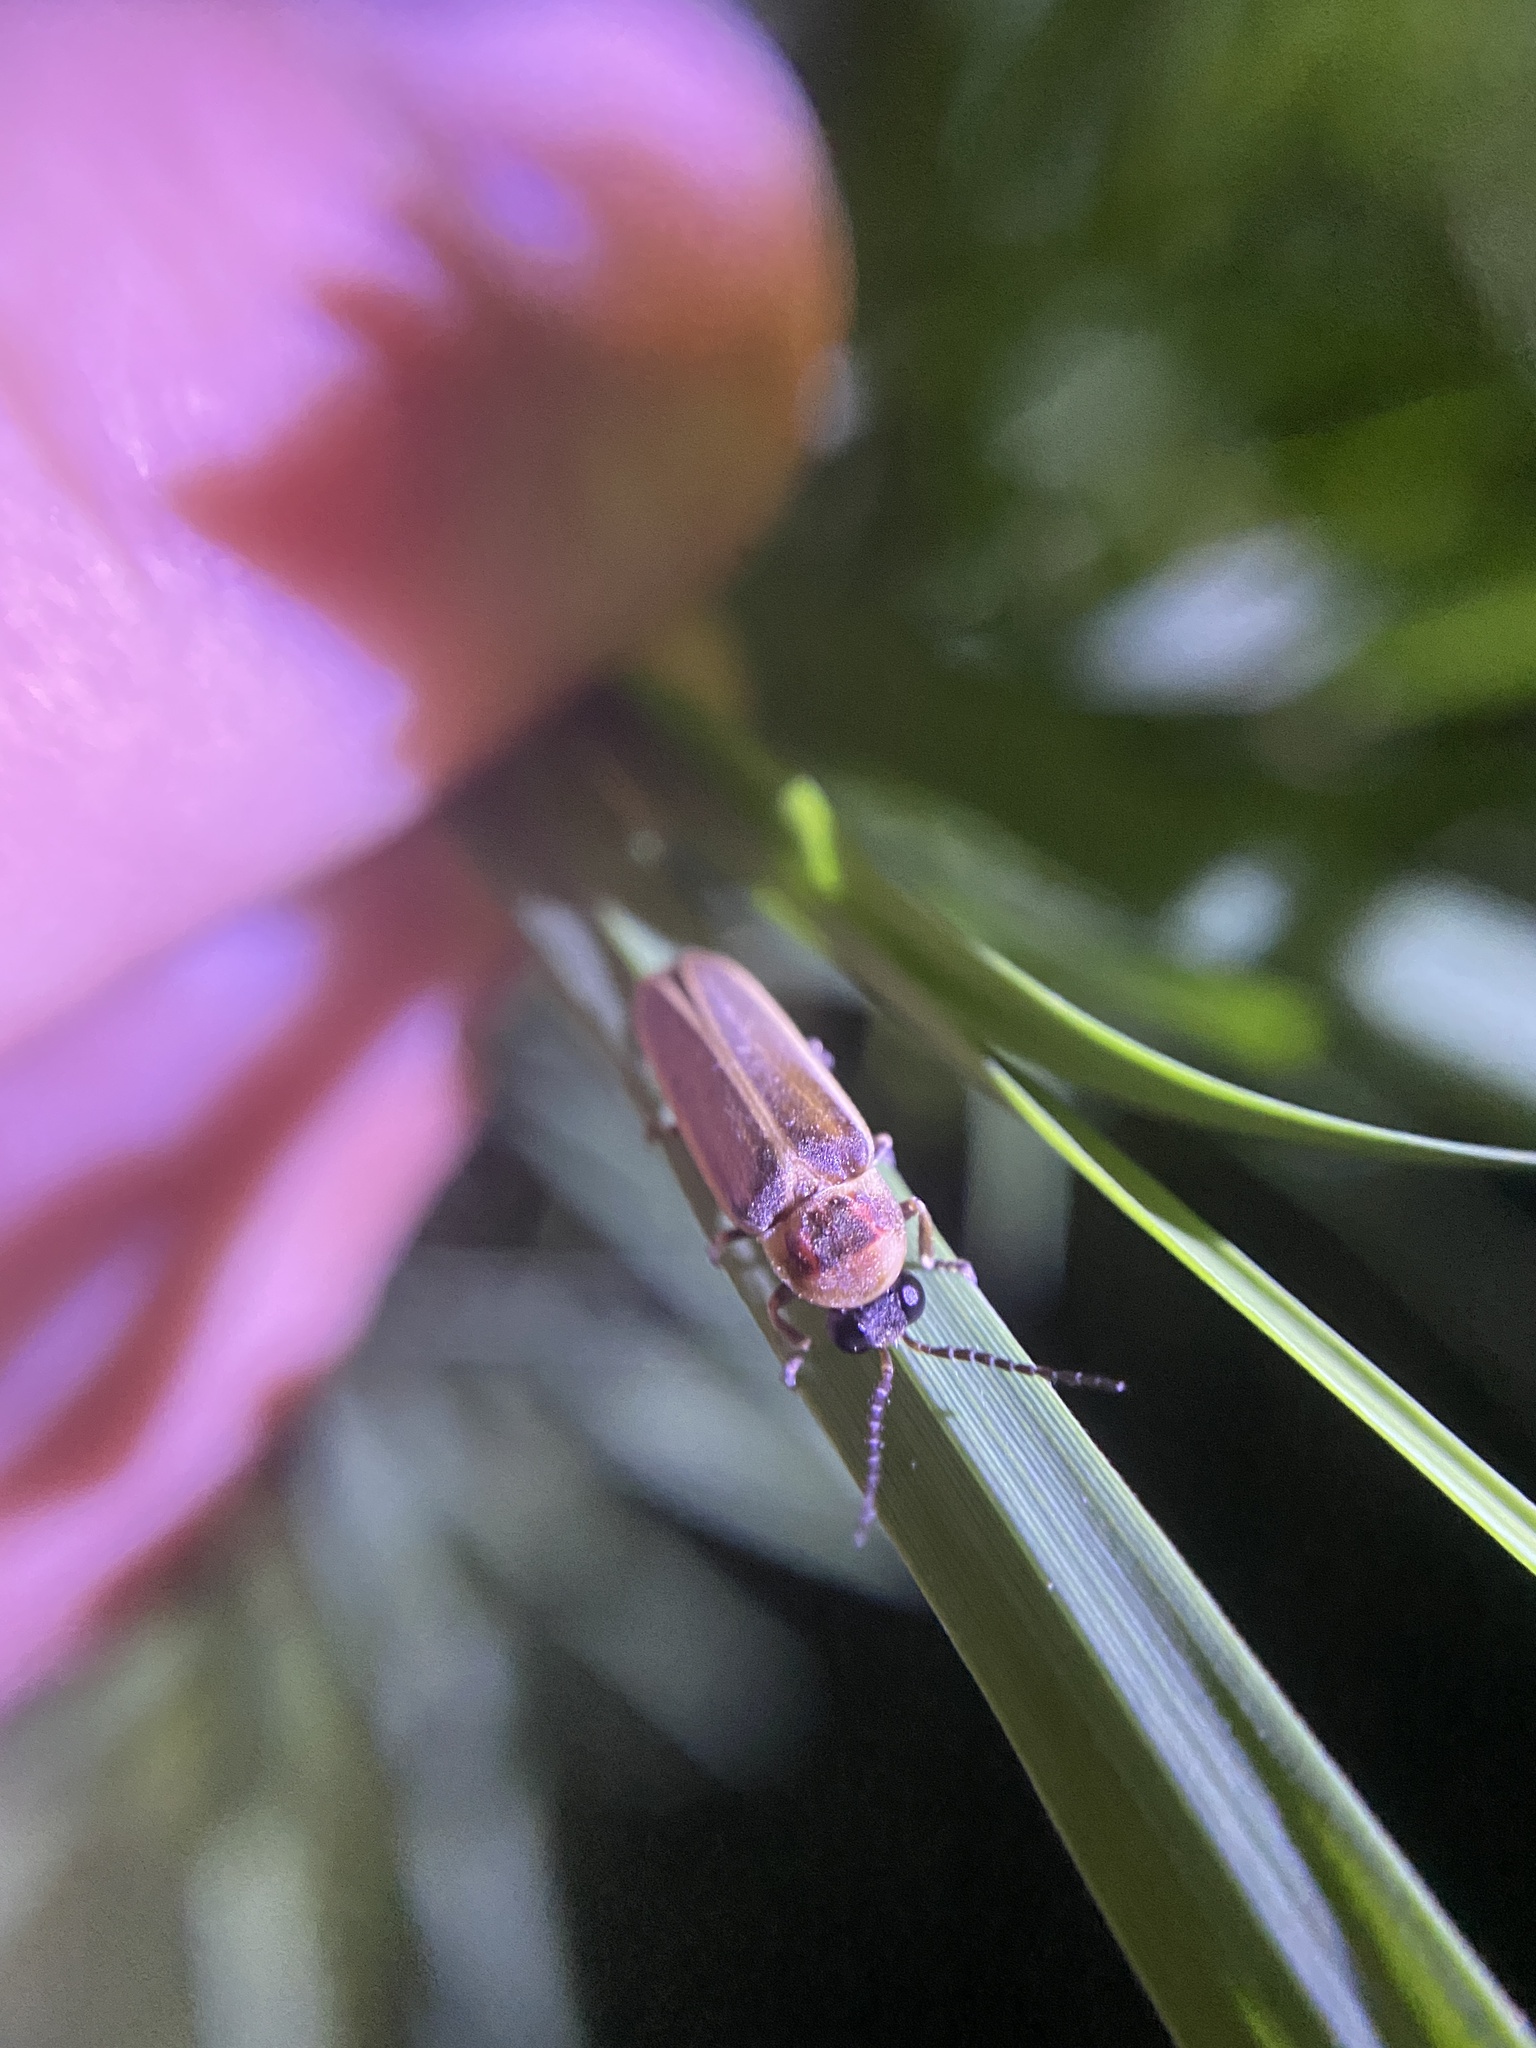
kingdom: Animalia
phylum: Arthropoda
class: Insecta
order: Coleoptera
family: Lampyridae
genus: Photinus
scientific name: Photinus signaticollis
